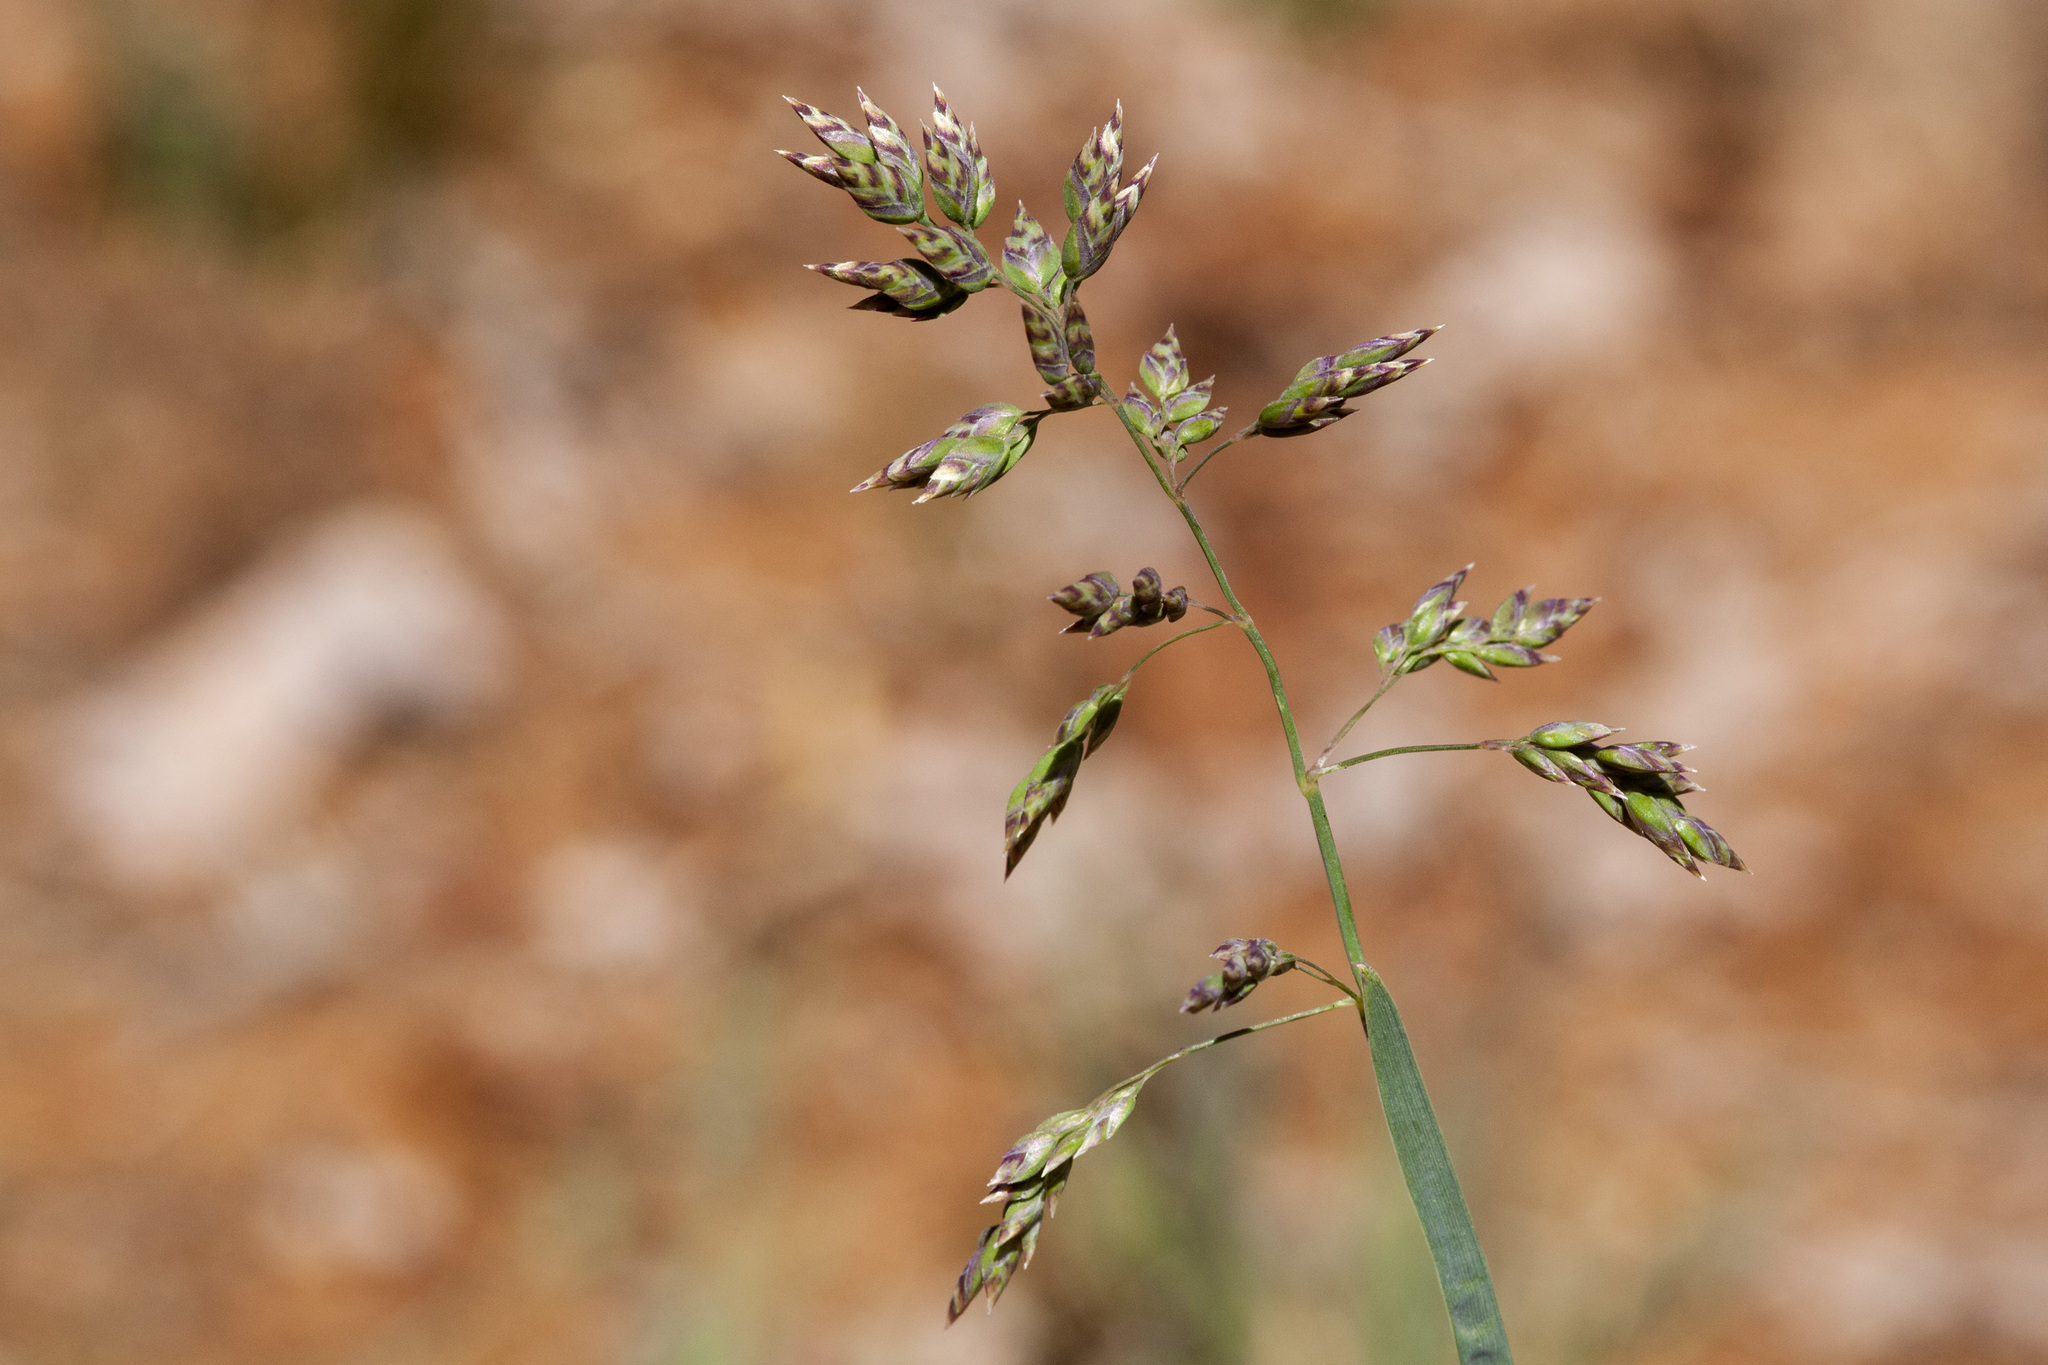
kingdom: Plantae
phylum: Tracheophyta
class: Liliopsida
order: Poales
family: Poaceae
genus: Poa
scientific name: Poa alpina
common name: Alpine bluegrass
